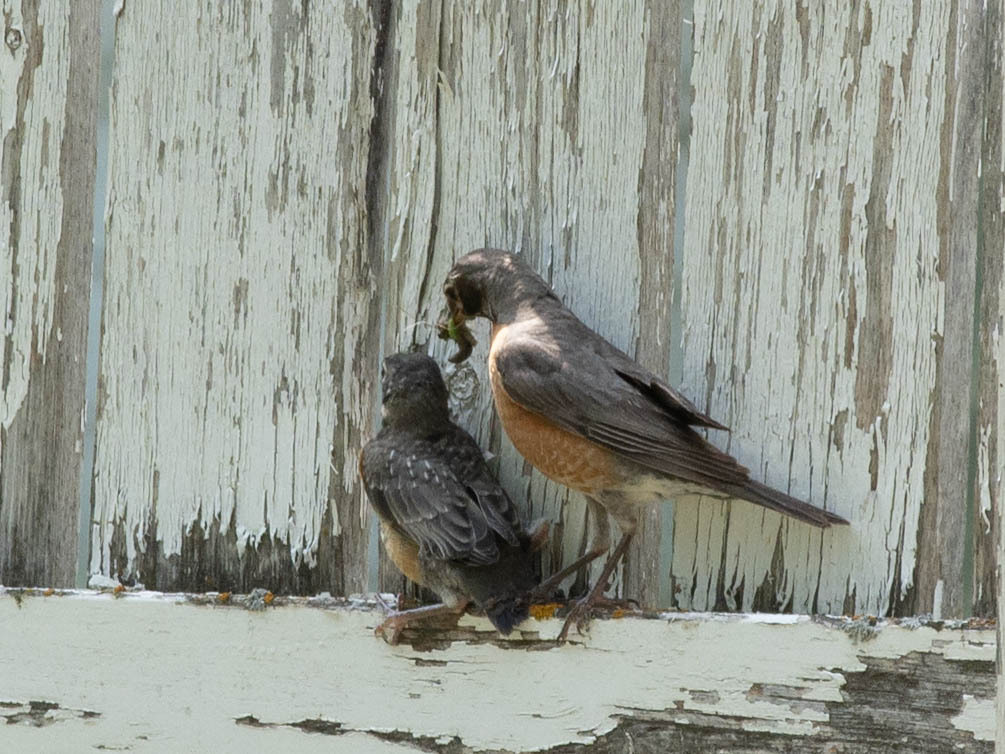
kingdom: Animalia
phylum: Chordata
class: Aves
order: Passeriformes
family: Turdidae
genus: Turdus
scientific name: Turdus migratorius
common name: American robin
